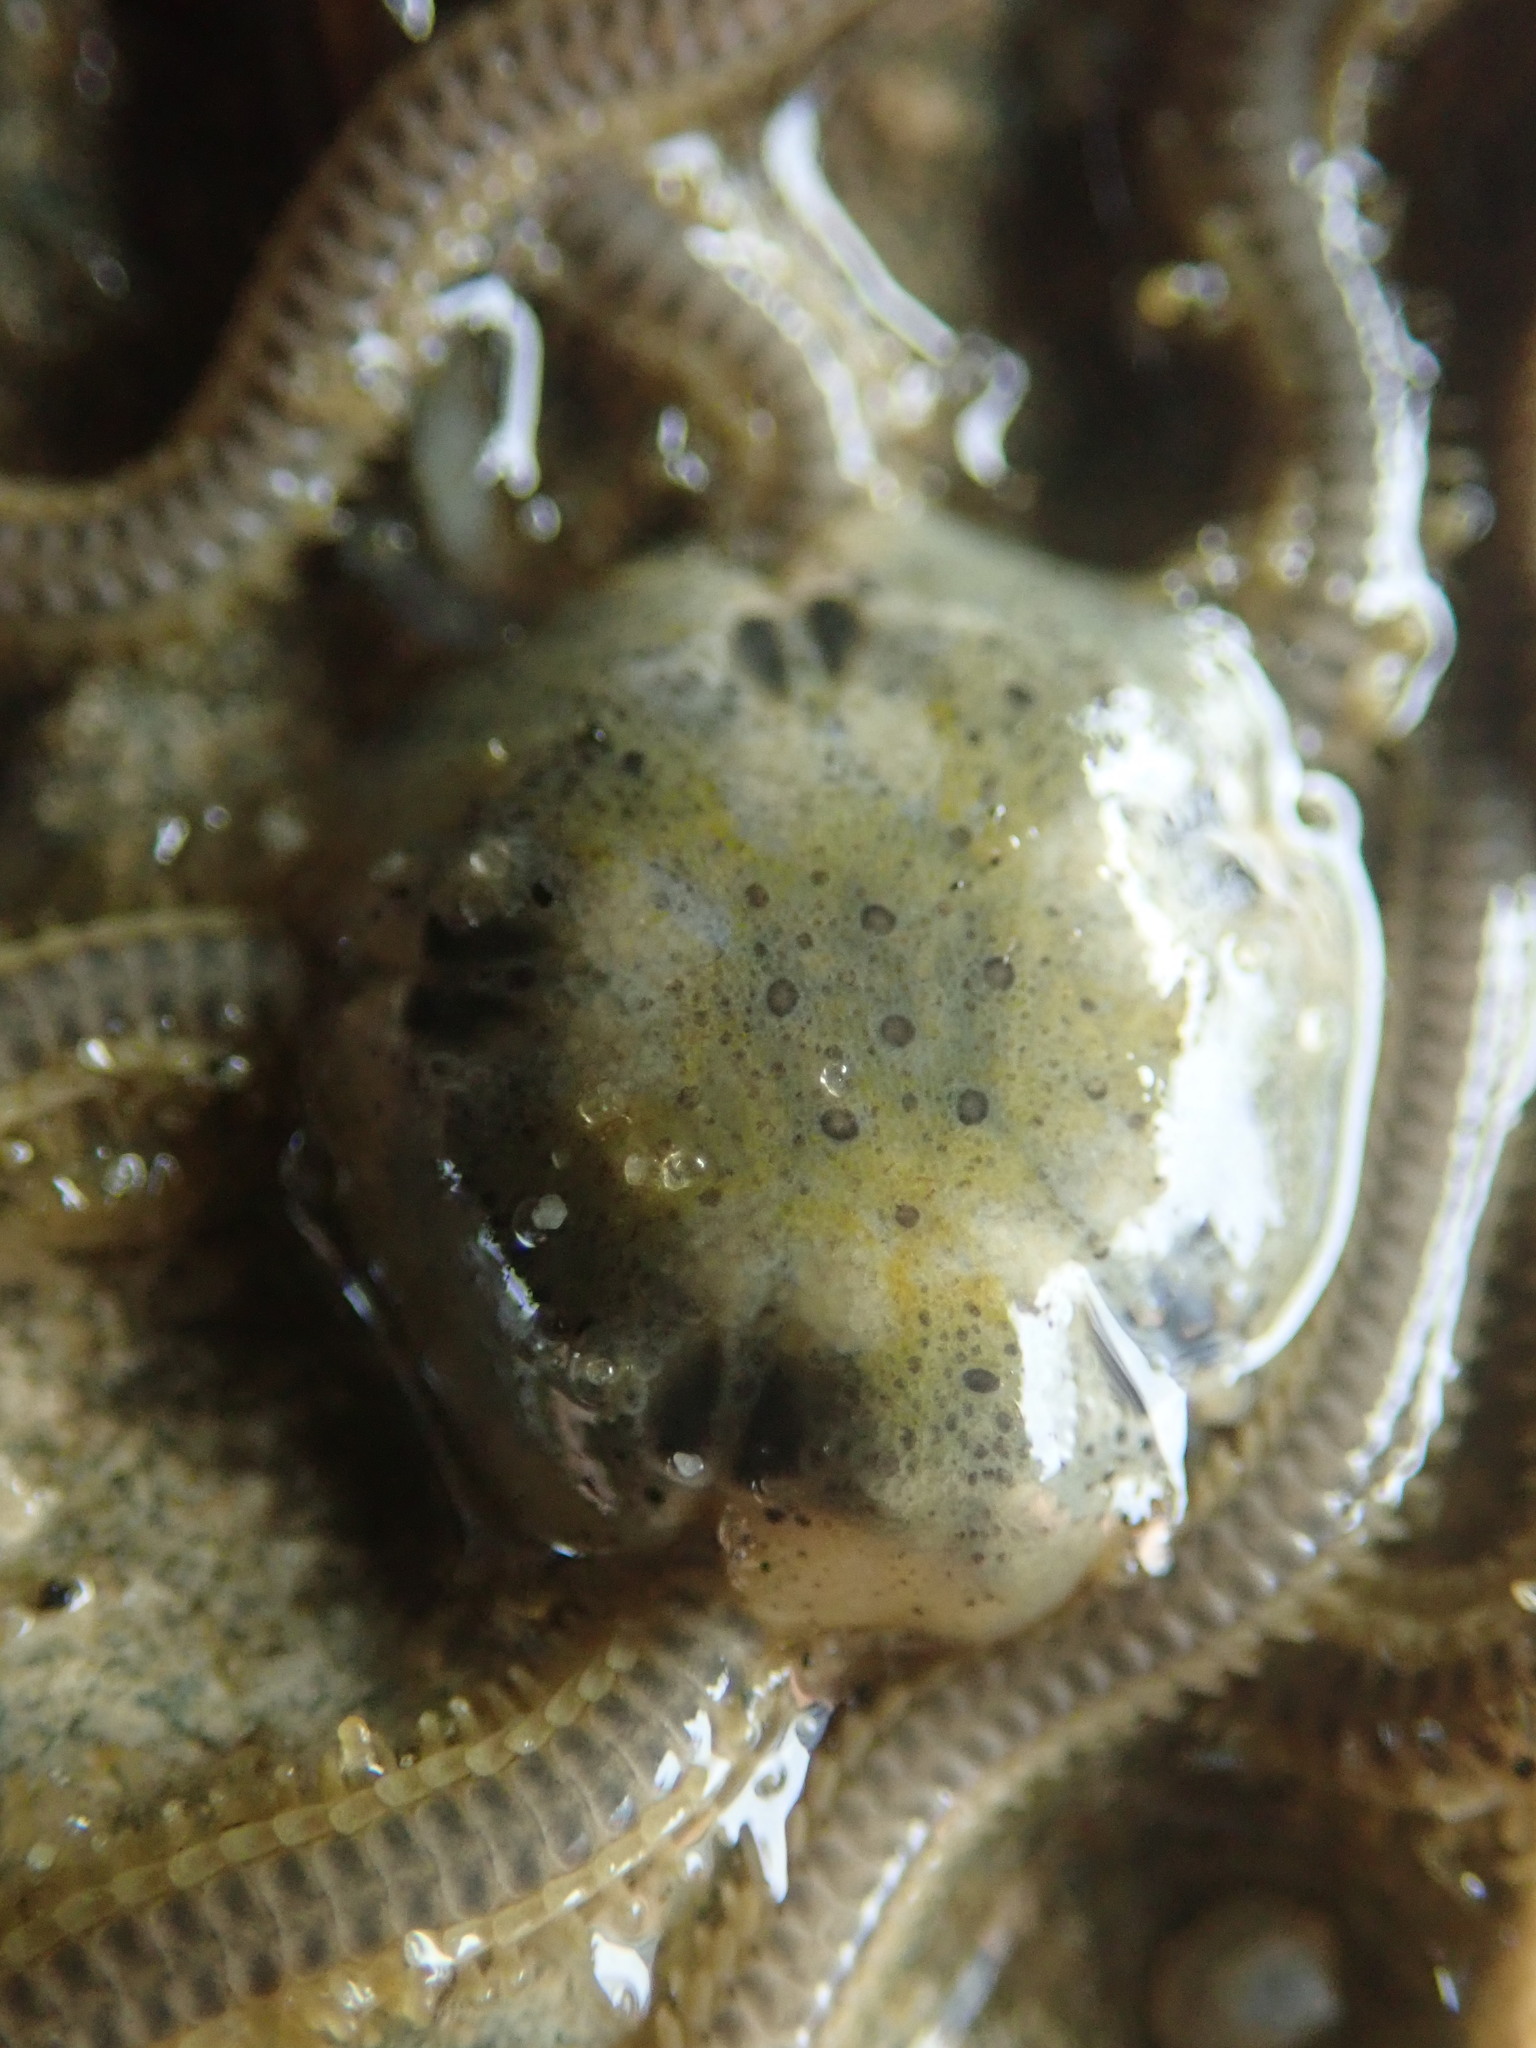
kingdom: Animalia
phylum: Echinodermata
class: Ophiuroidea
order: Amphilepidida
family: Amphiuridae
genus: Amphiodia
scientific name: Amphiodia occidentalis
